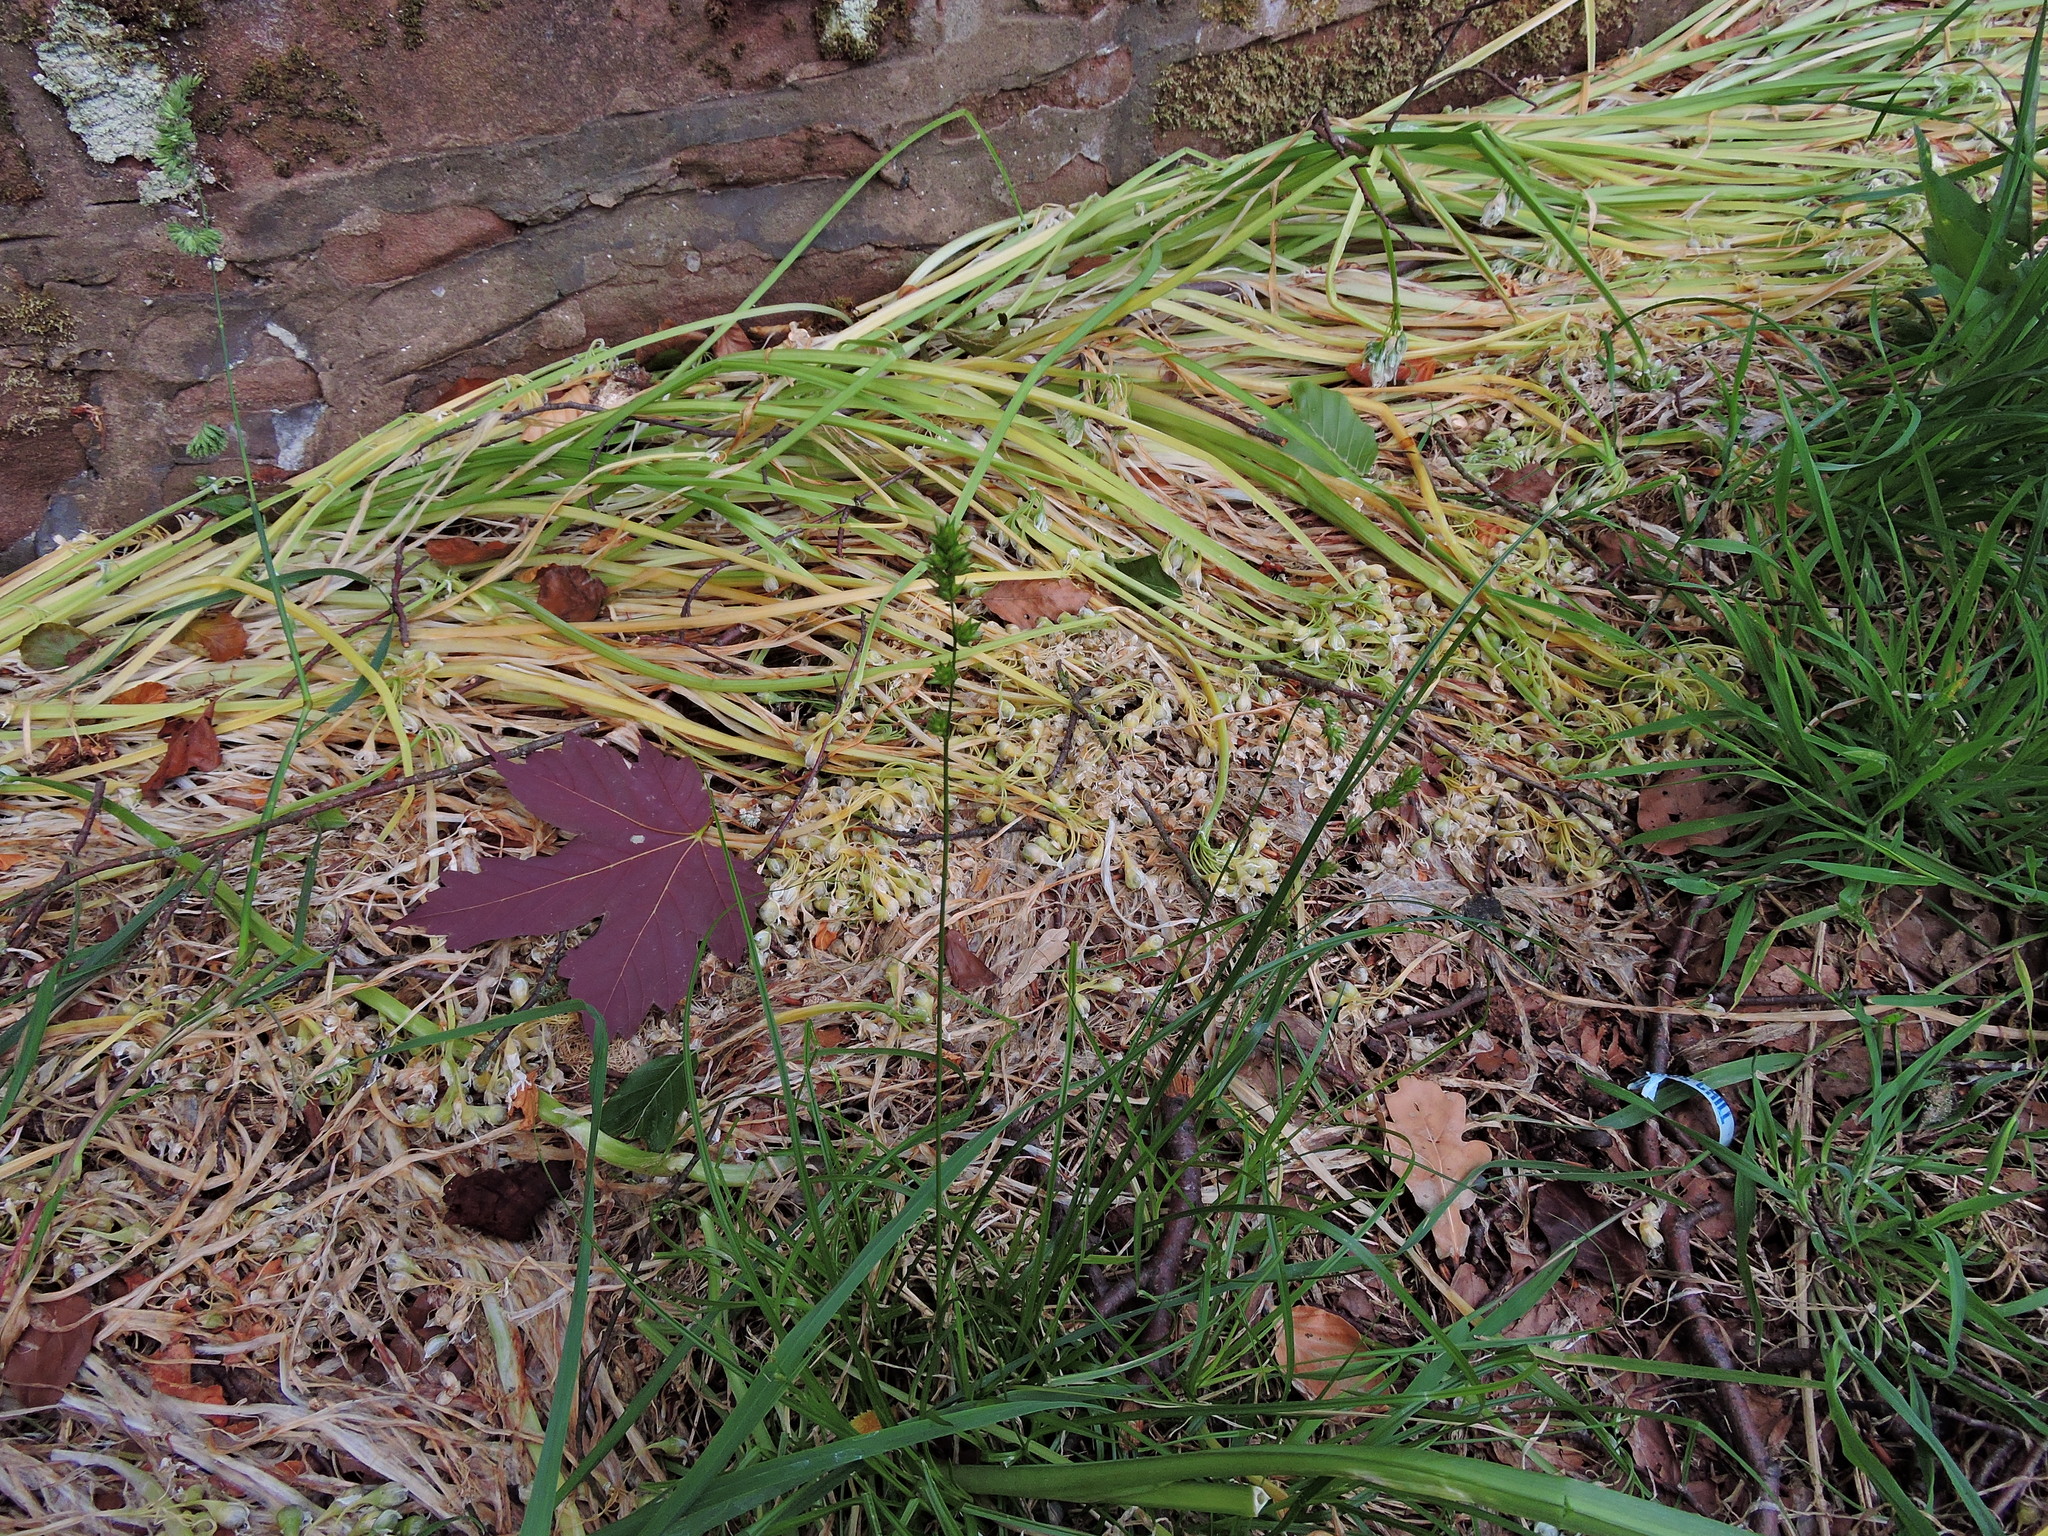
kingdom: Plantae
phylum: Tracheophyta
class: Liliopsida
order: Poales
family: Cyperaceae
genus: Carex
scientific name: Carex spicata
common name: Spiked sedge
